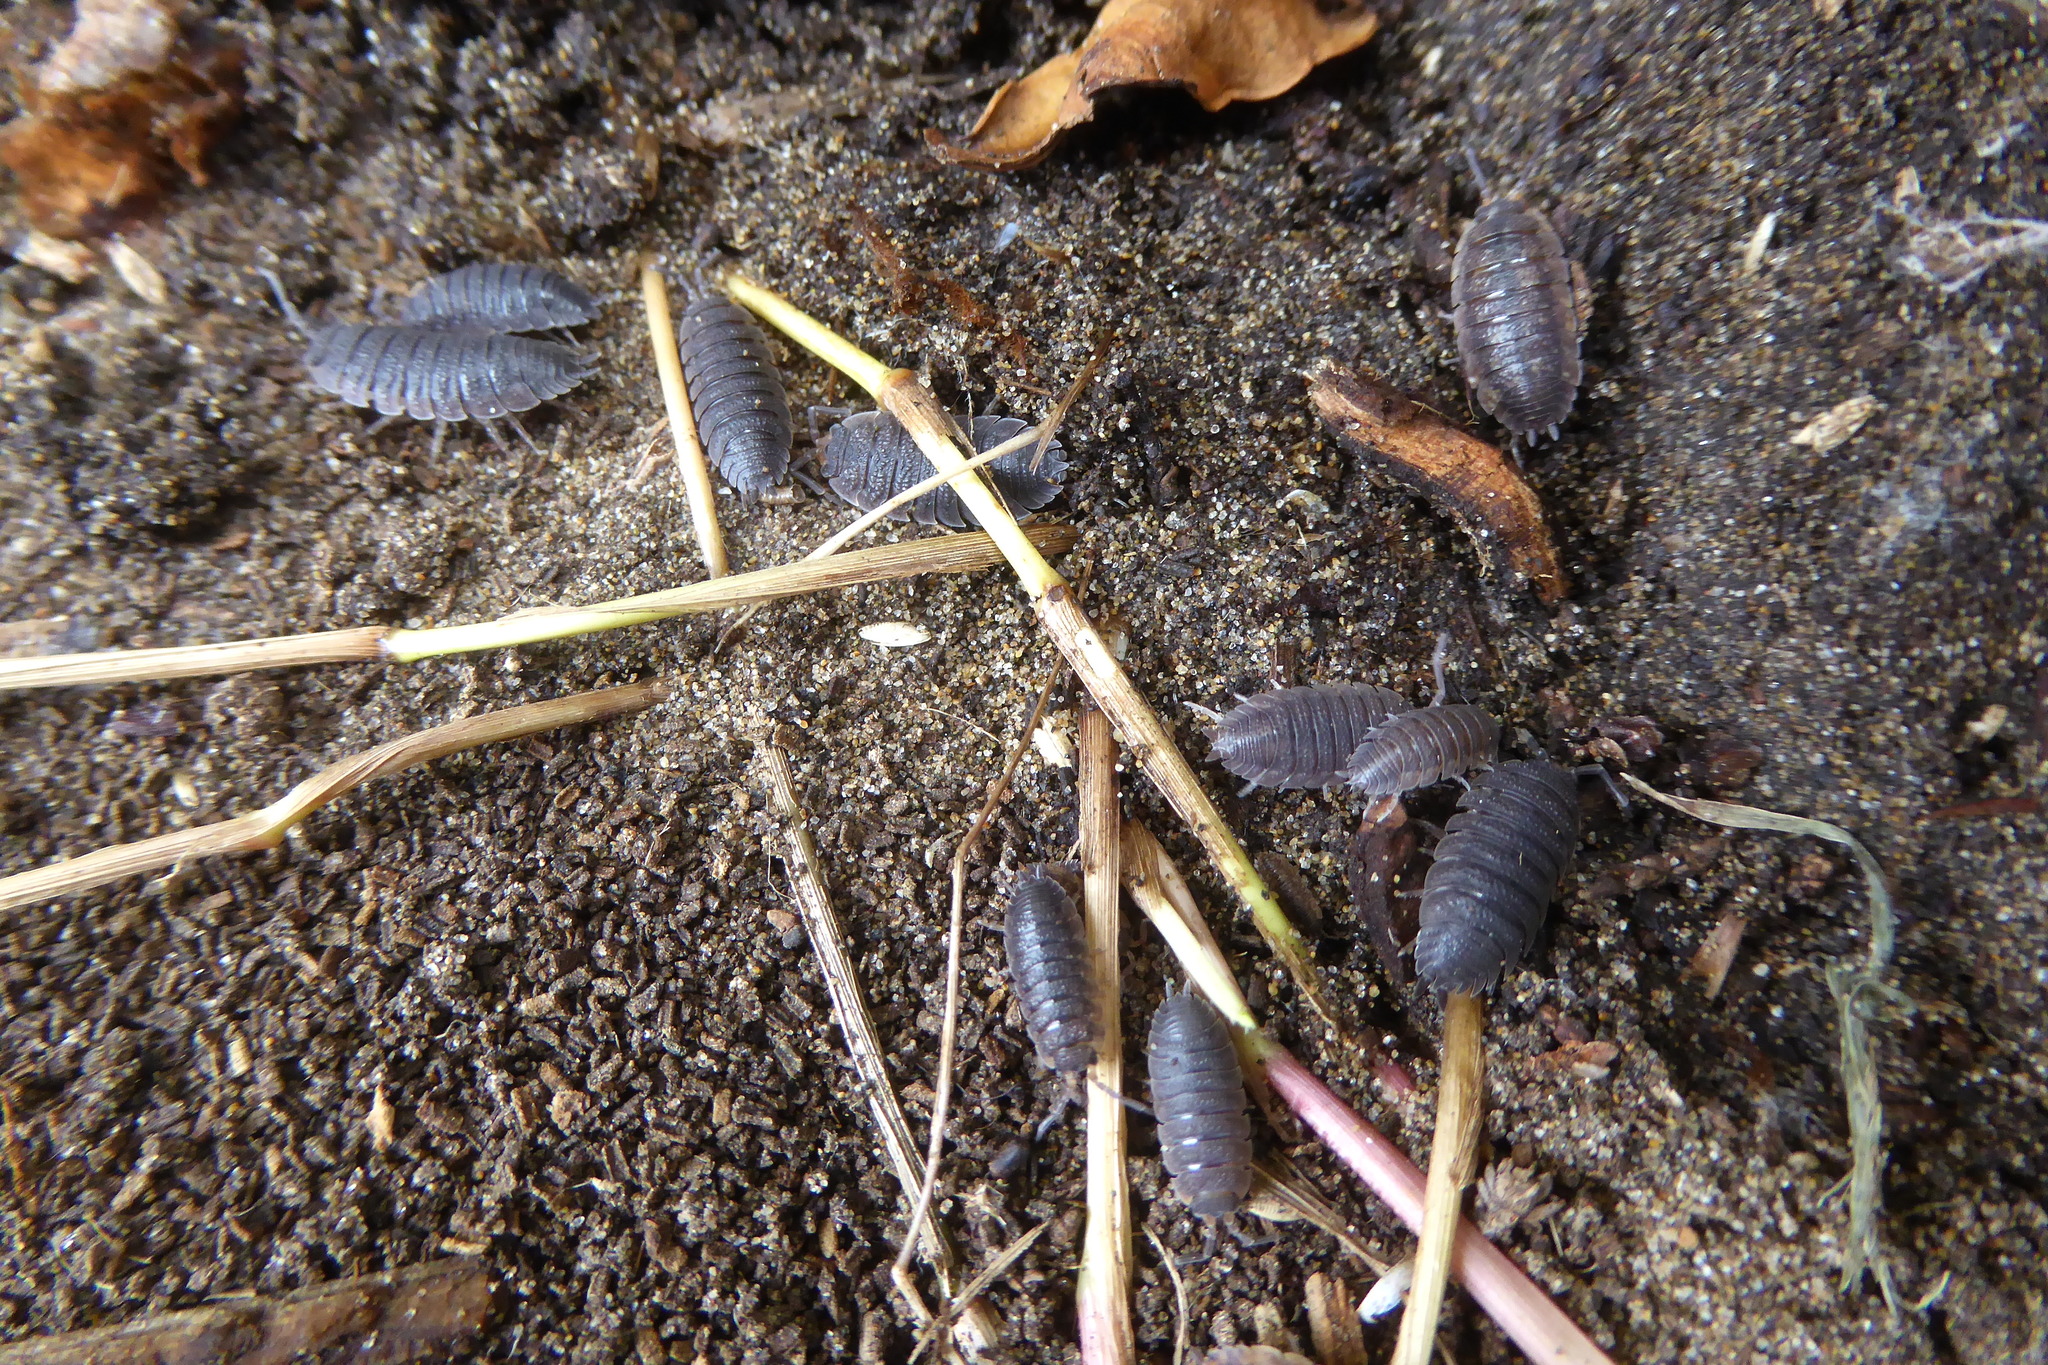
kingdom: Animalia
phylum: Arthropoda
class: Malacostraca
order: Isopoda
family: Porcellionidae
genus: Porcellio
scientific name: Porcellio scaber
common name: Common rough woodlouse
